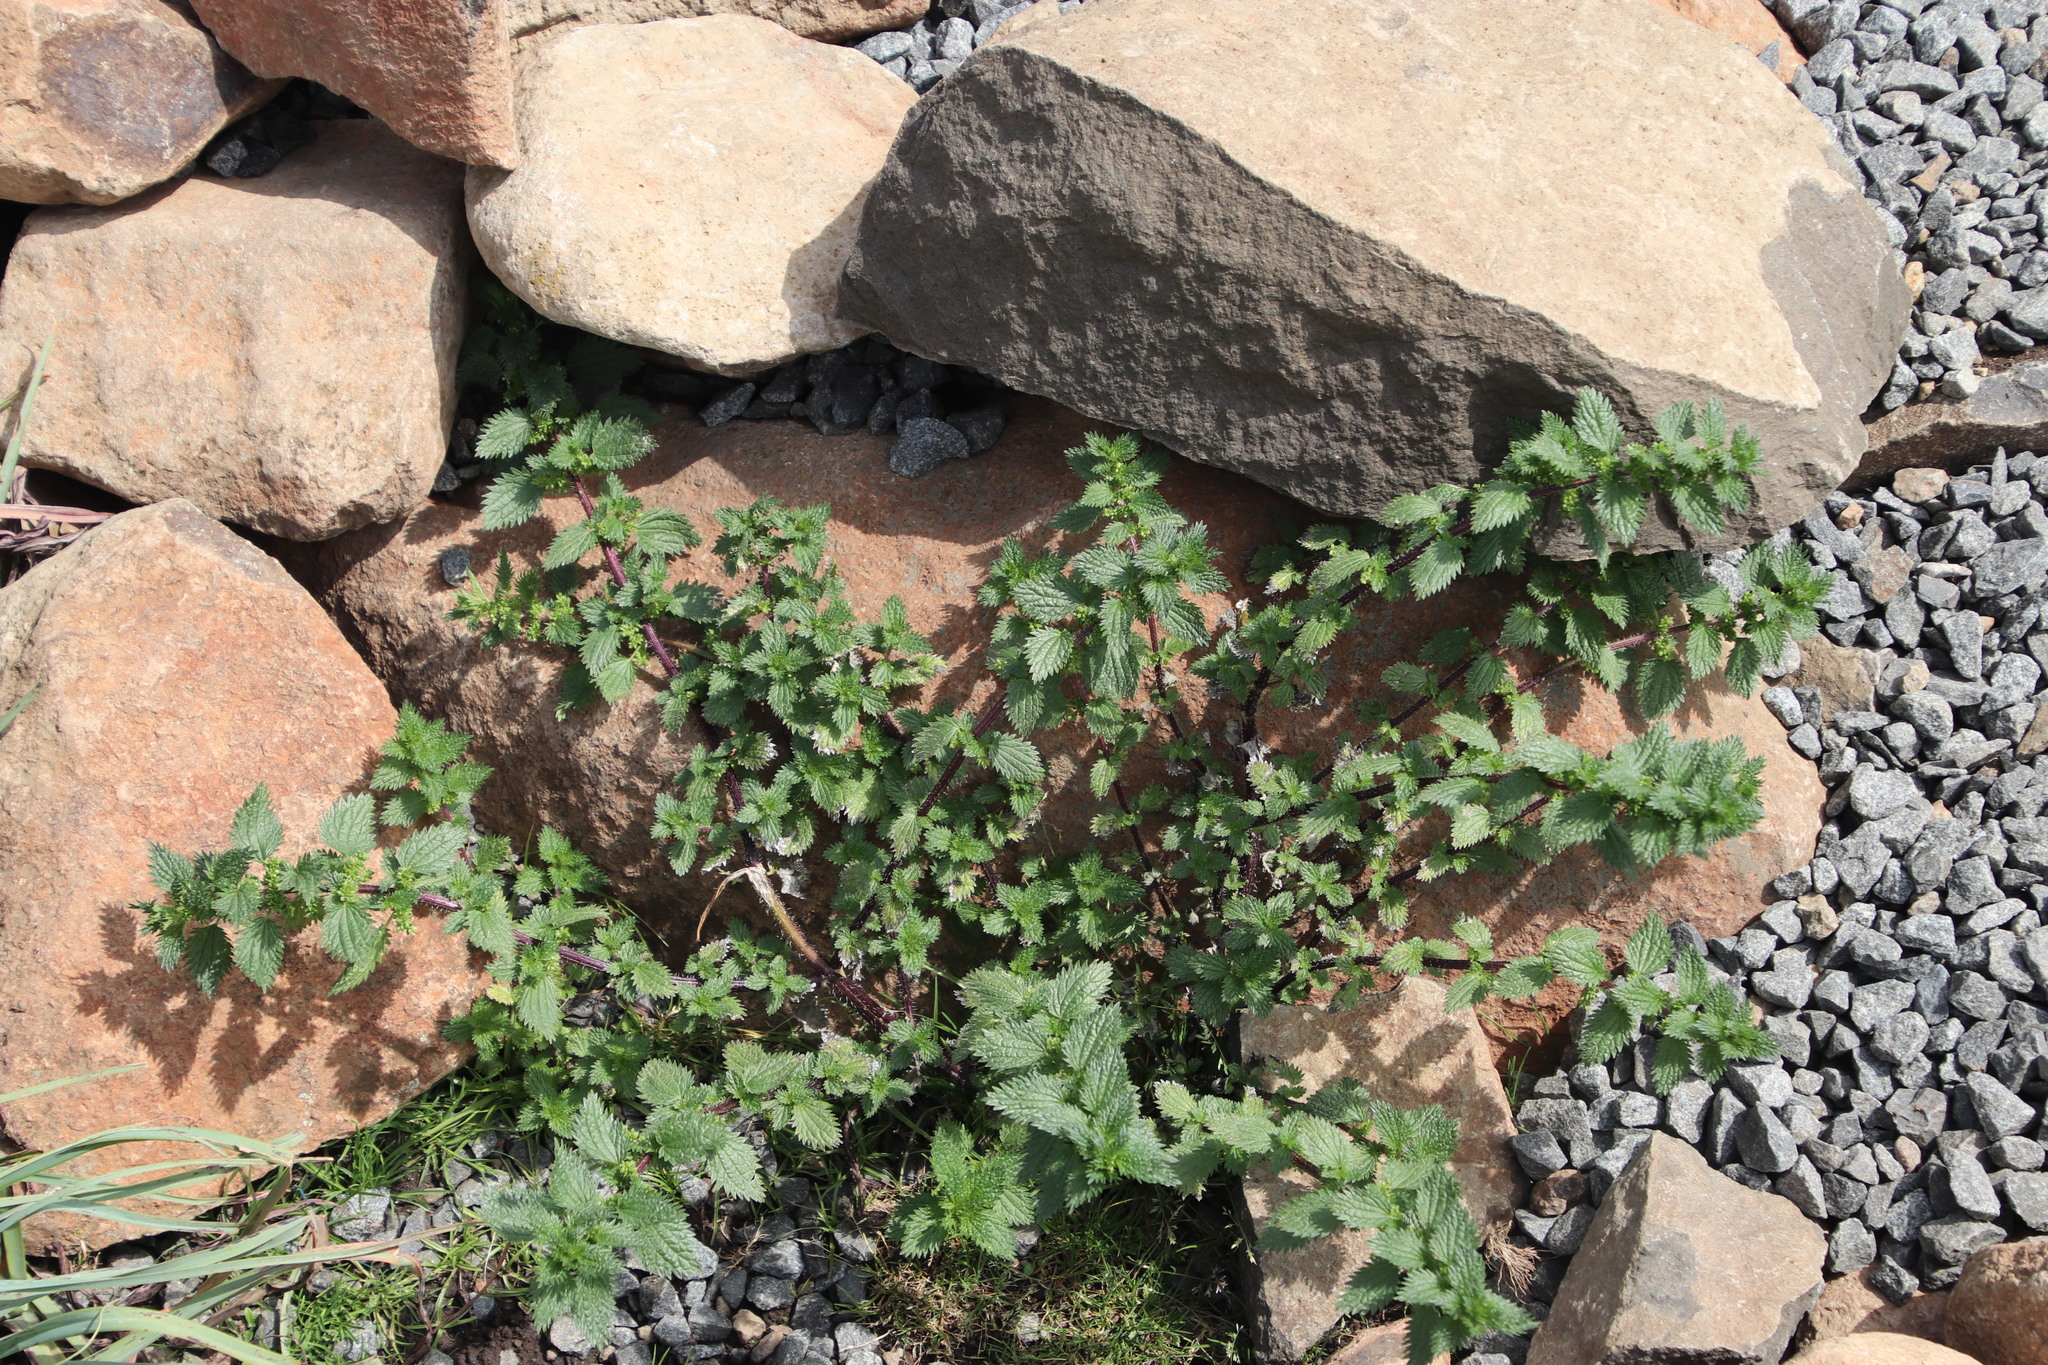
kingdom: Plantae
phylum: Tracheophyta
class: Magnoliopsida
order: Rosales
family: Urticaceae
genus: Urtica
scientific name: Urtica urens
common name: Dwarf nettle
